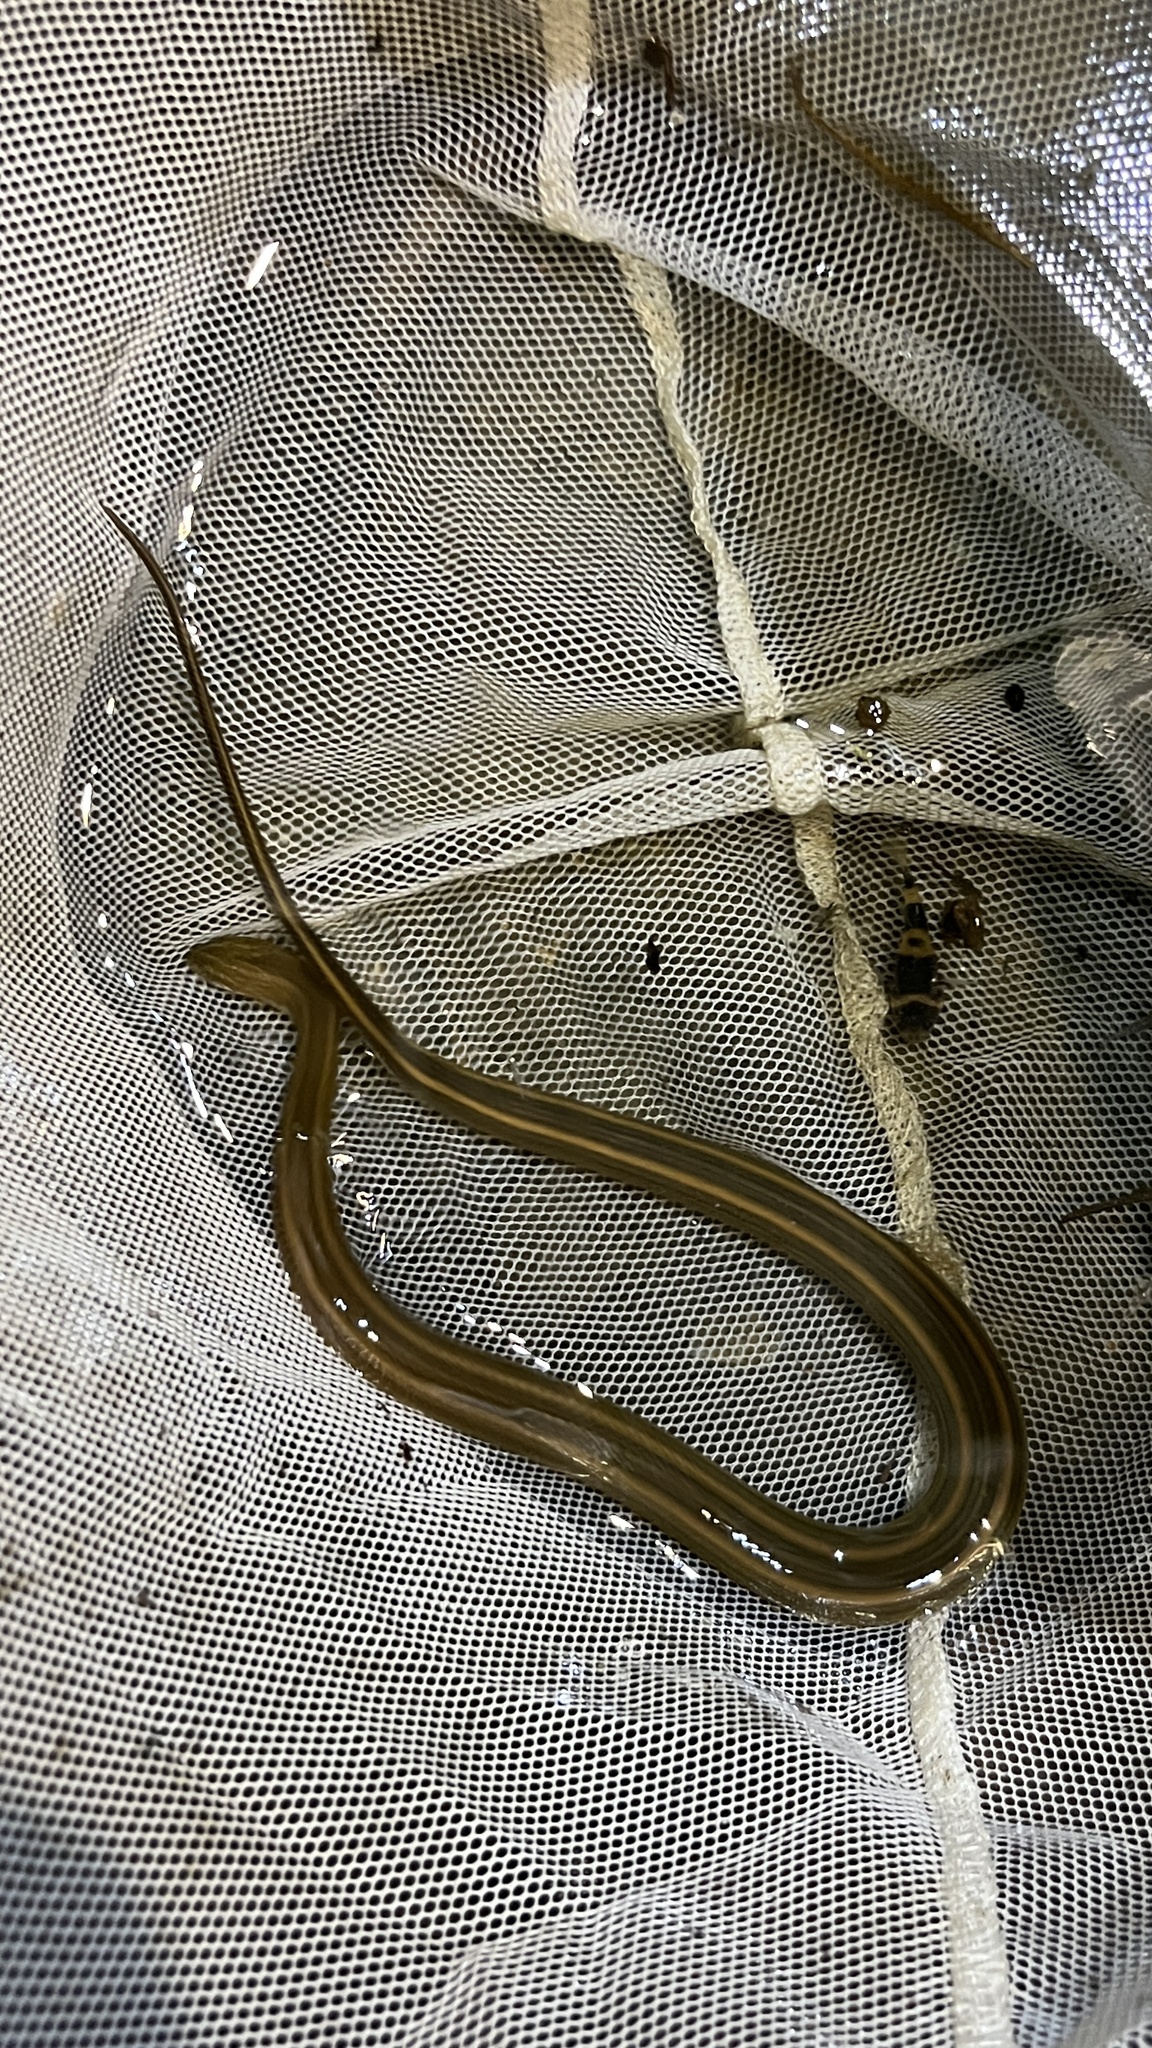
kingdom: Animalia
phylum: Chordata
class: Squamata
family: Homalopsidae
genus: Enhydris
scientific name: Enhydris enhydris
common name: Rainbow water snake
